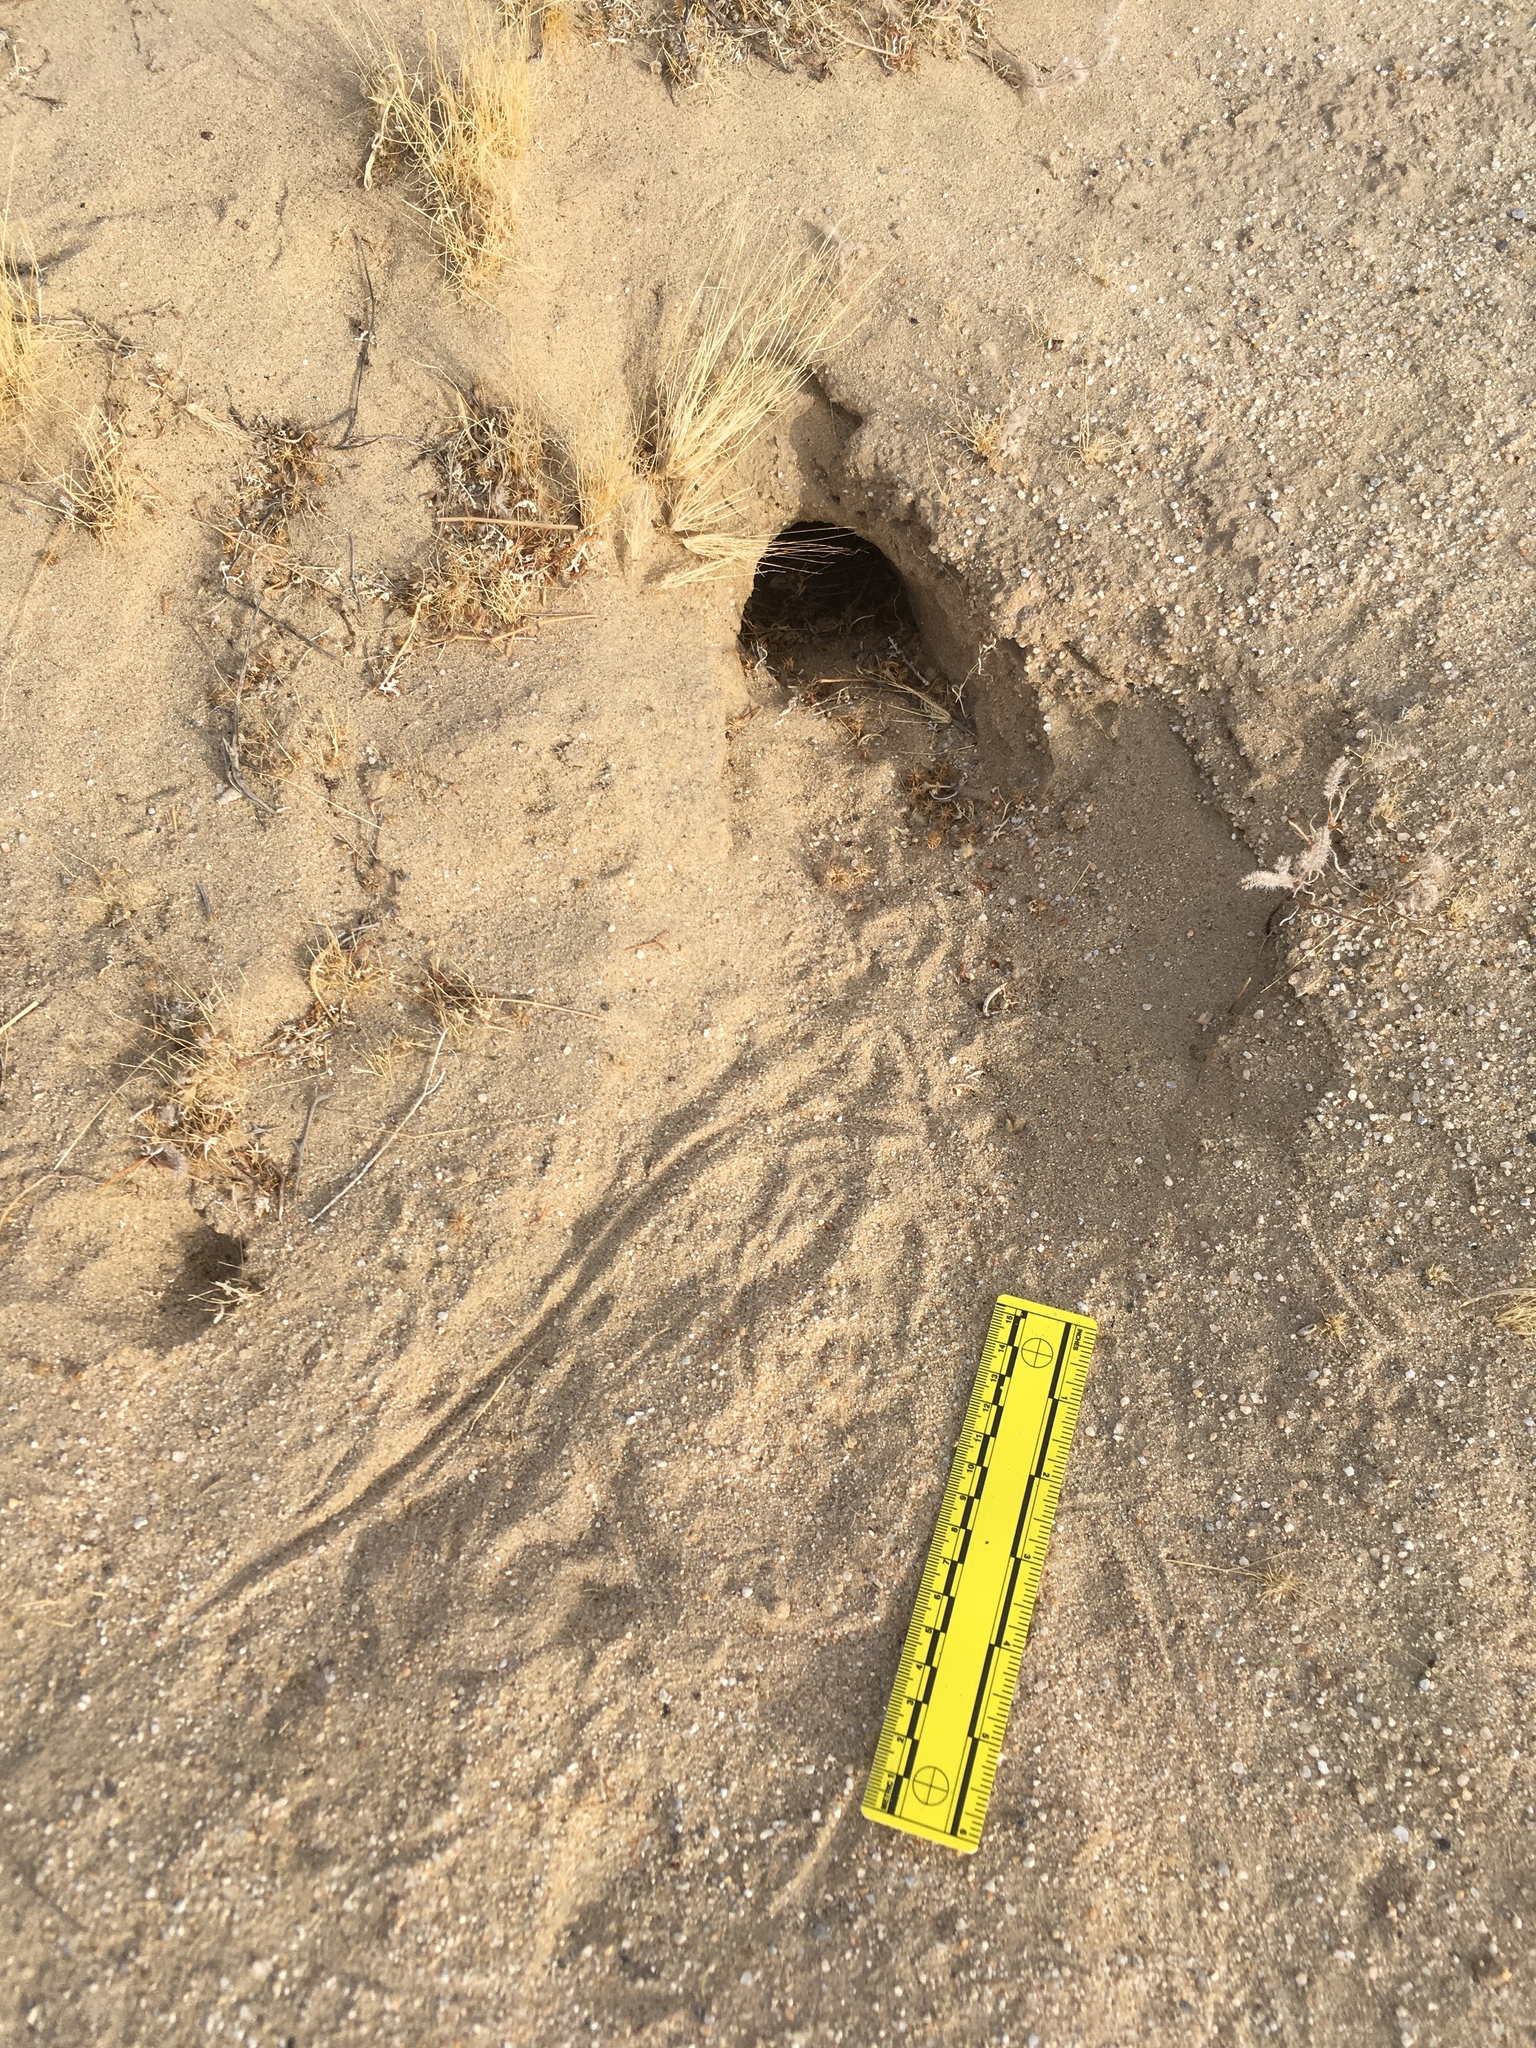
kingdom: Animalia
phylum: Chordata
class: Mammalia
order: Rodentia
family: Heteromyidae
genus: Dipodomys
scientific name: Dipodomys deserti
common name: Desert kangaroo rat
